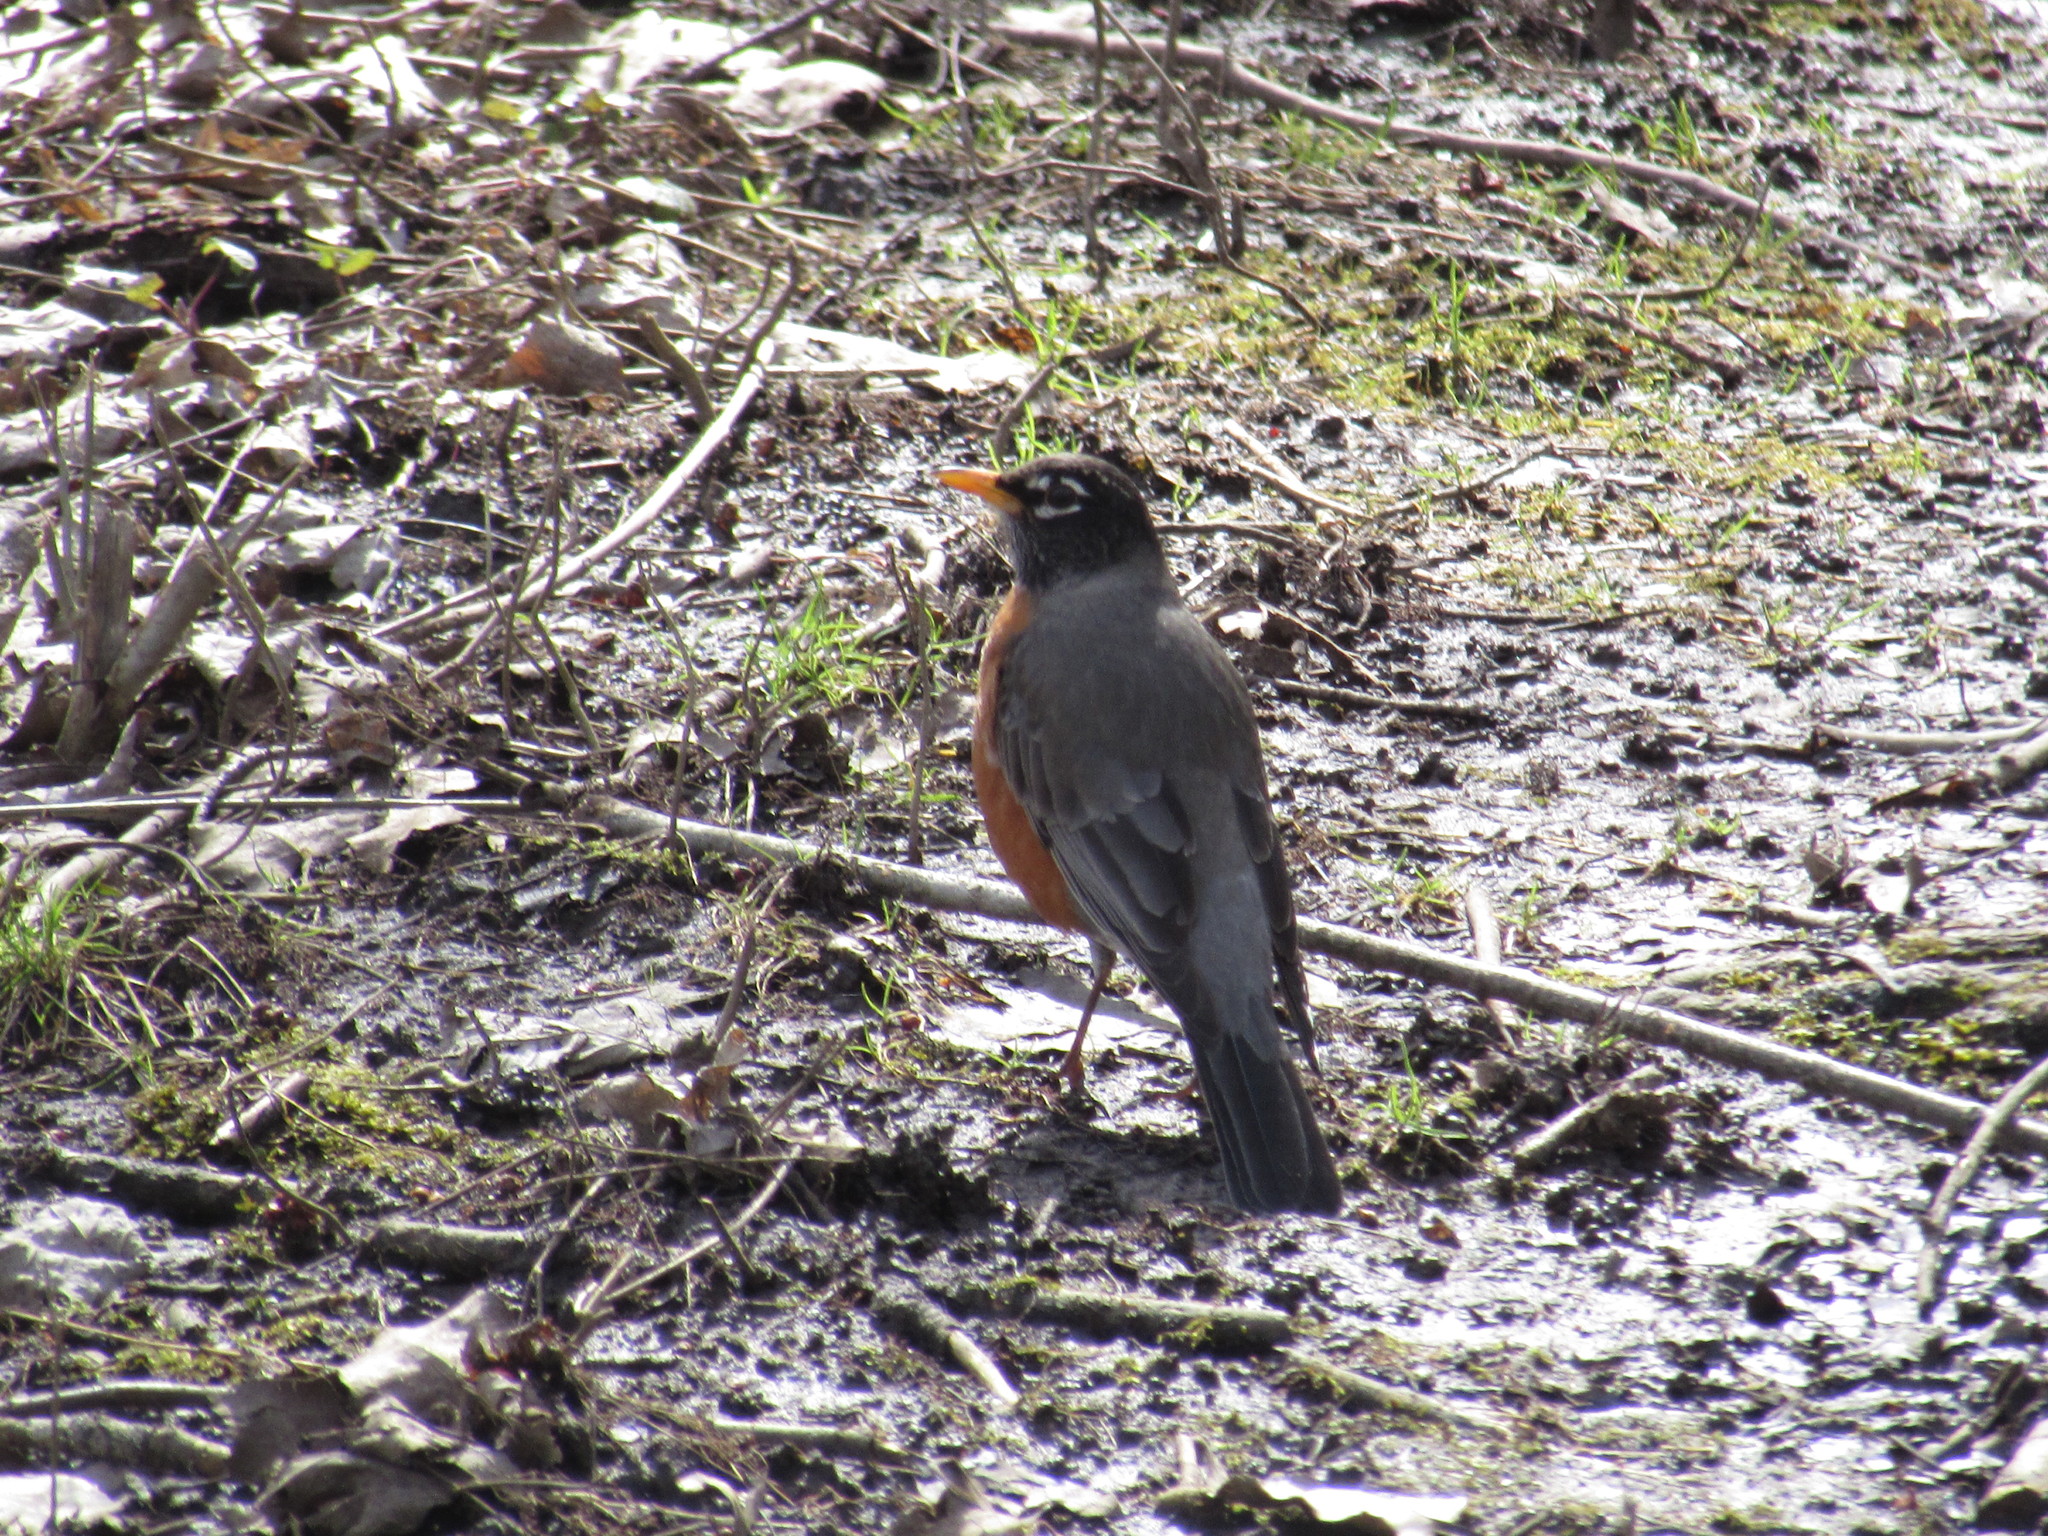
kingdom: Animalia
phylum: Chordata
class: Aves
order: Passeriformes
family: Turdidae
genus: Turdus
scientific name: Turdus migratorius
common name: American robin
